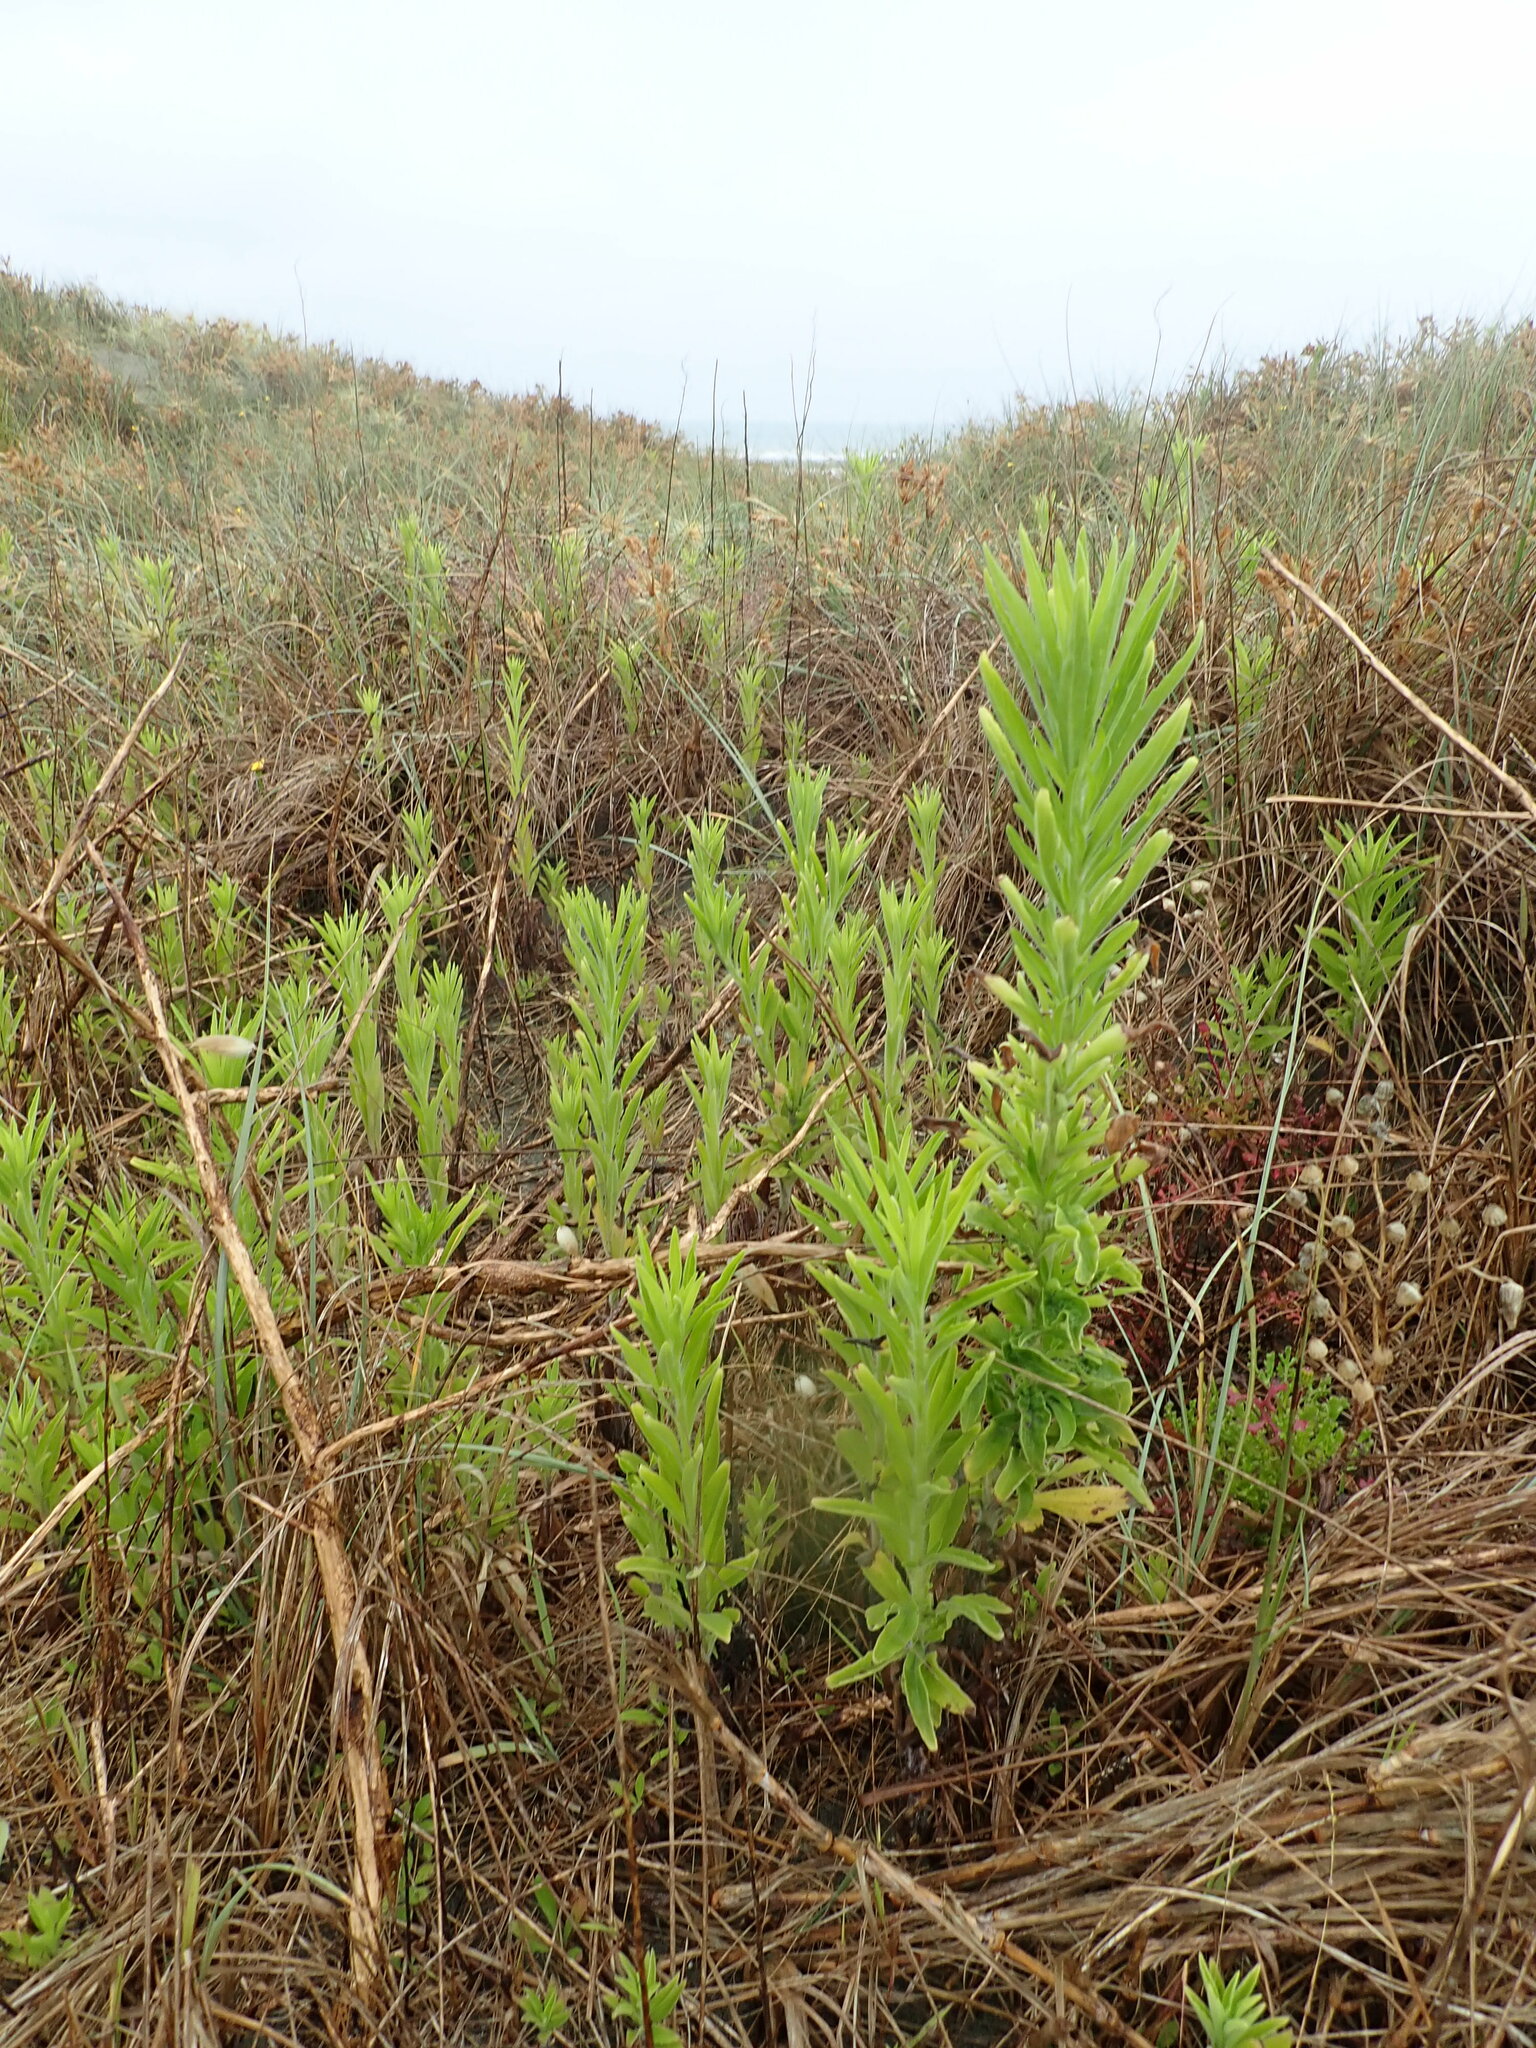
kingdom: Plantae
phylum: Tracheophyta
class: Magnoliopsida
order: Asterales
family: Asteraceae
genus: Erigeron
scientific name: Erigeron sumatrensis
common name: Daisy
